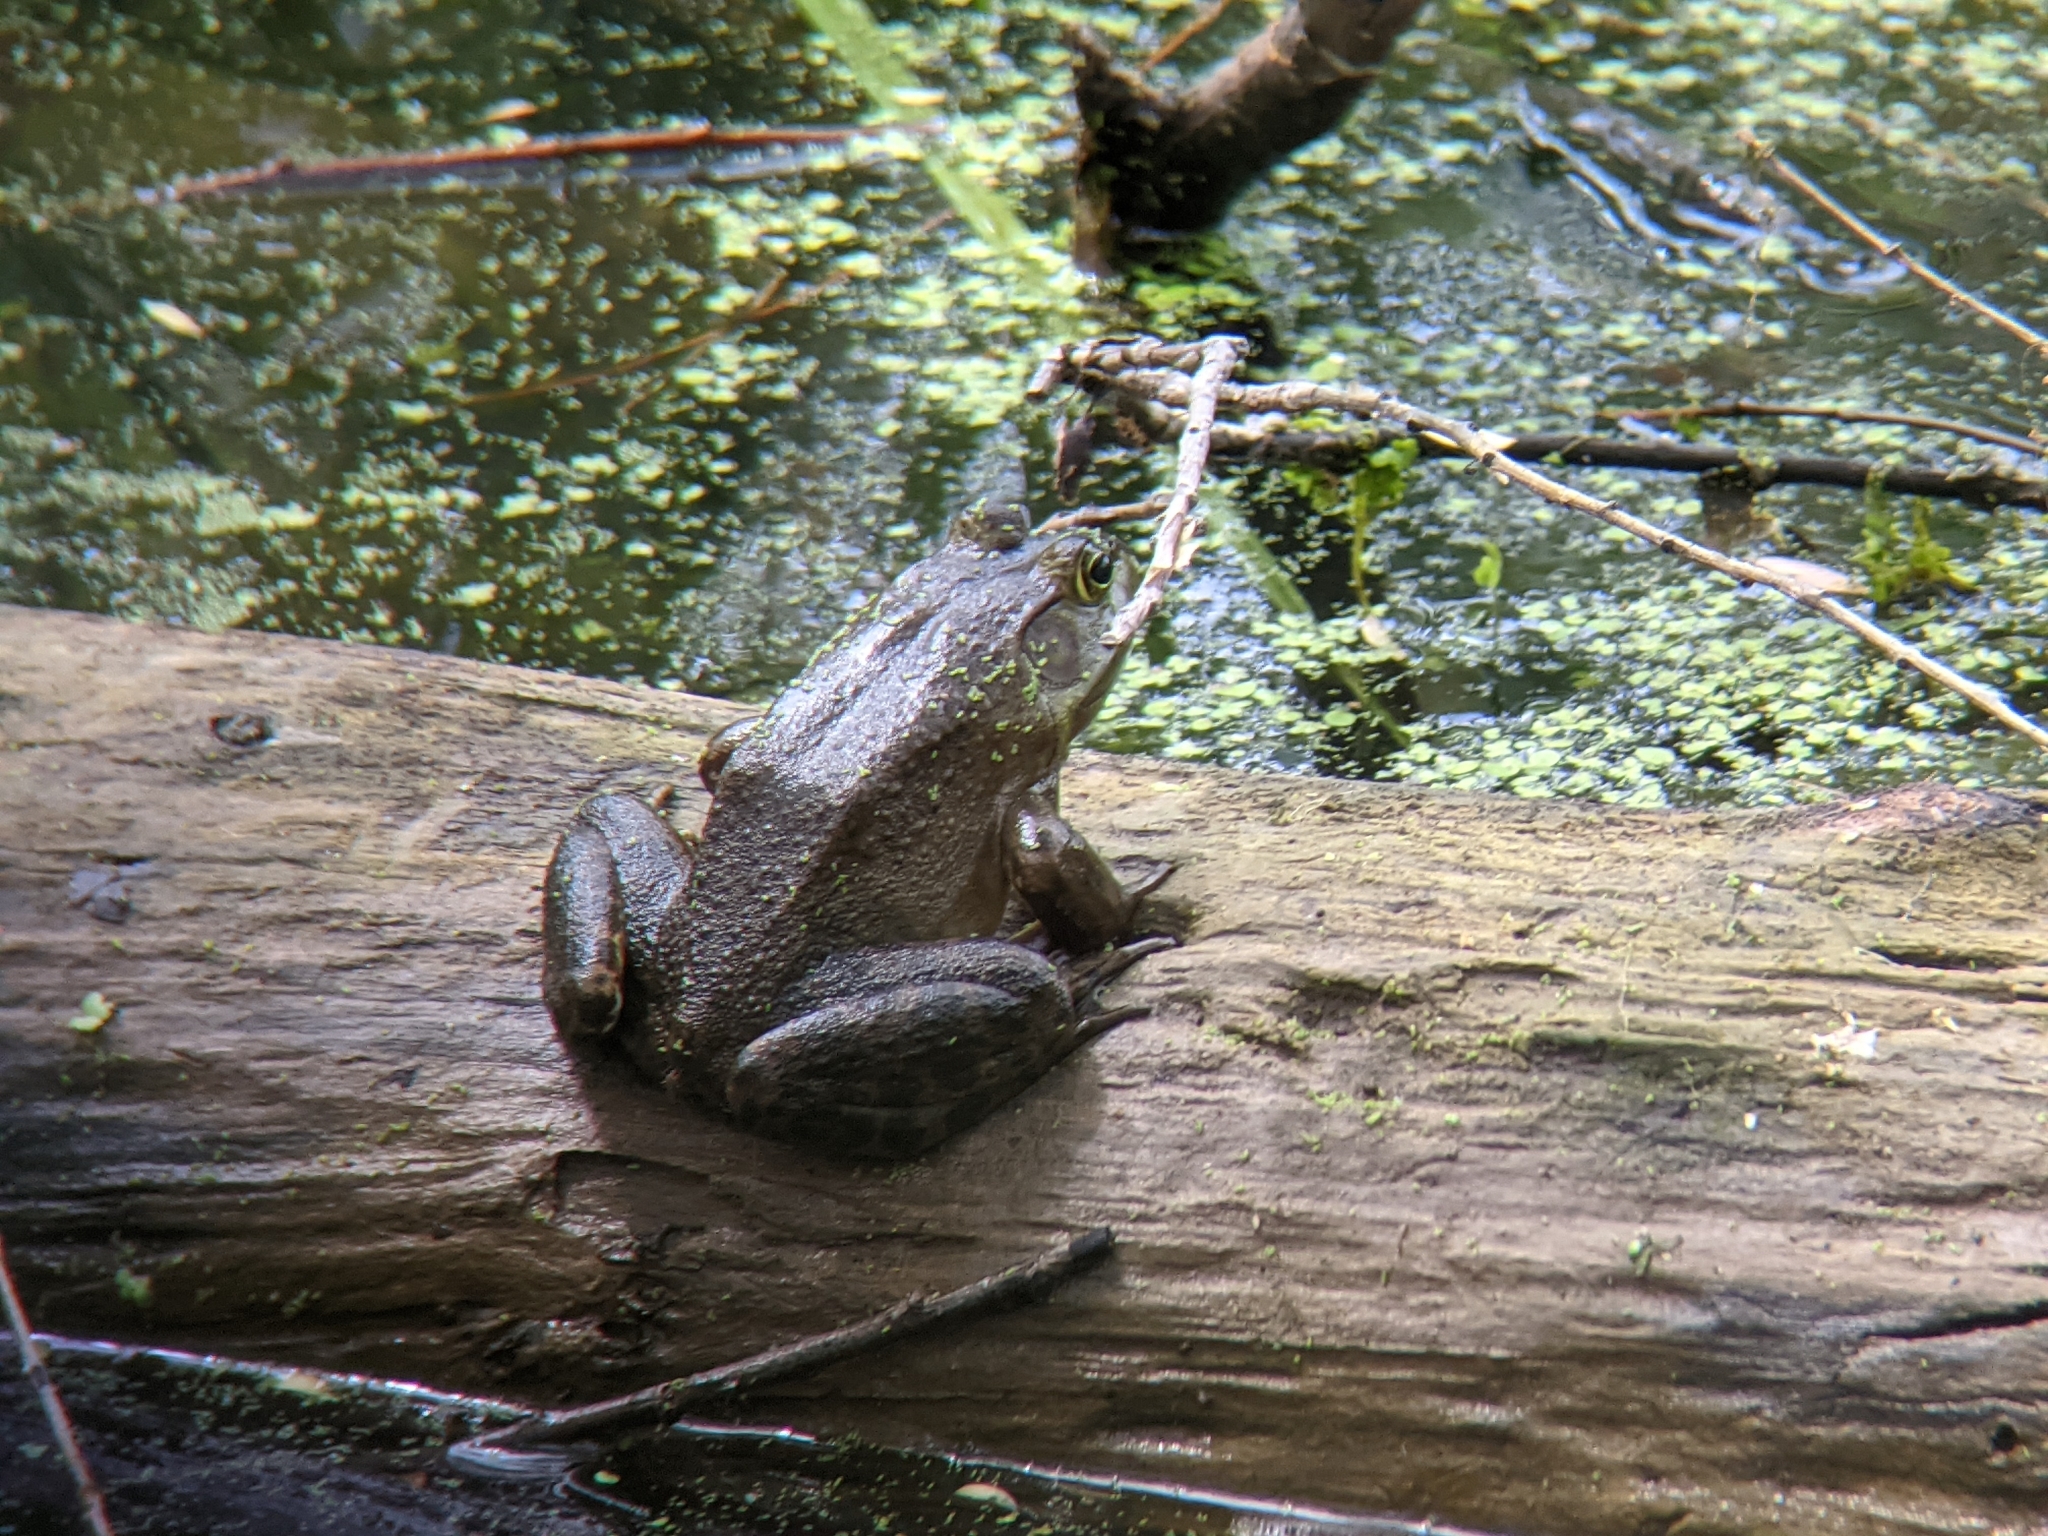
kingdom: Animalia
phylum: Chordata
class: Amphibia
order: Anura
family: Ranidae
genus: Lithobates
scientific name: Lithobates catesbeianus
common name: American bullfrog
